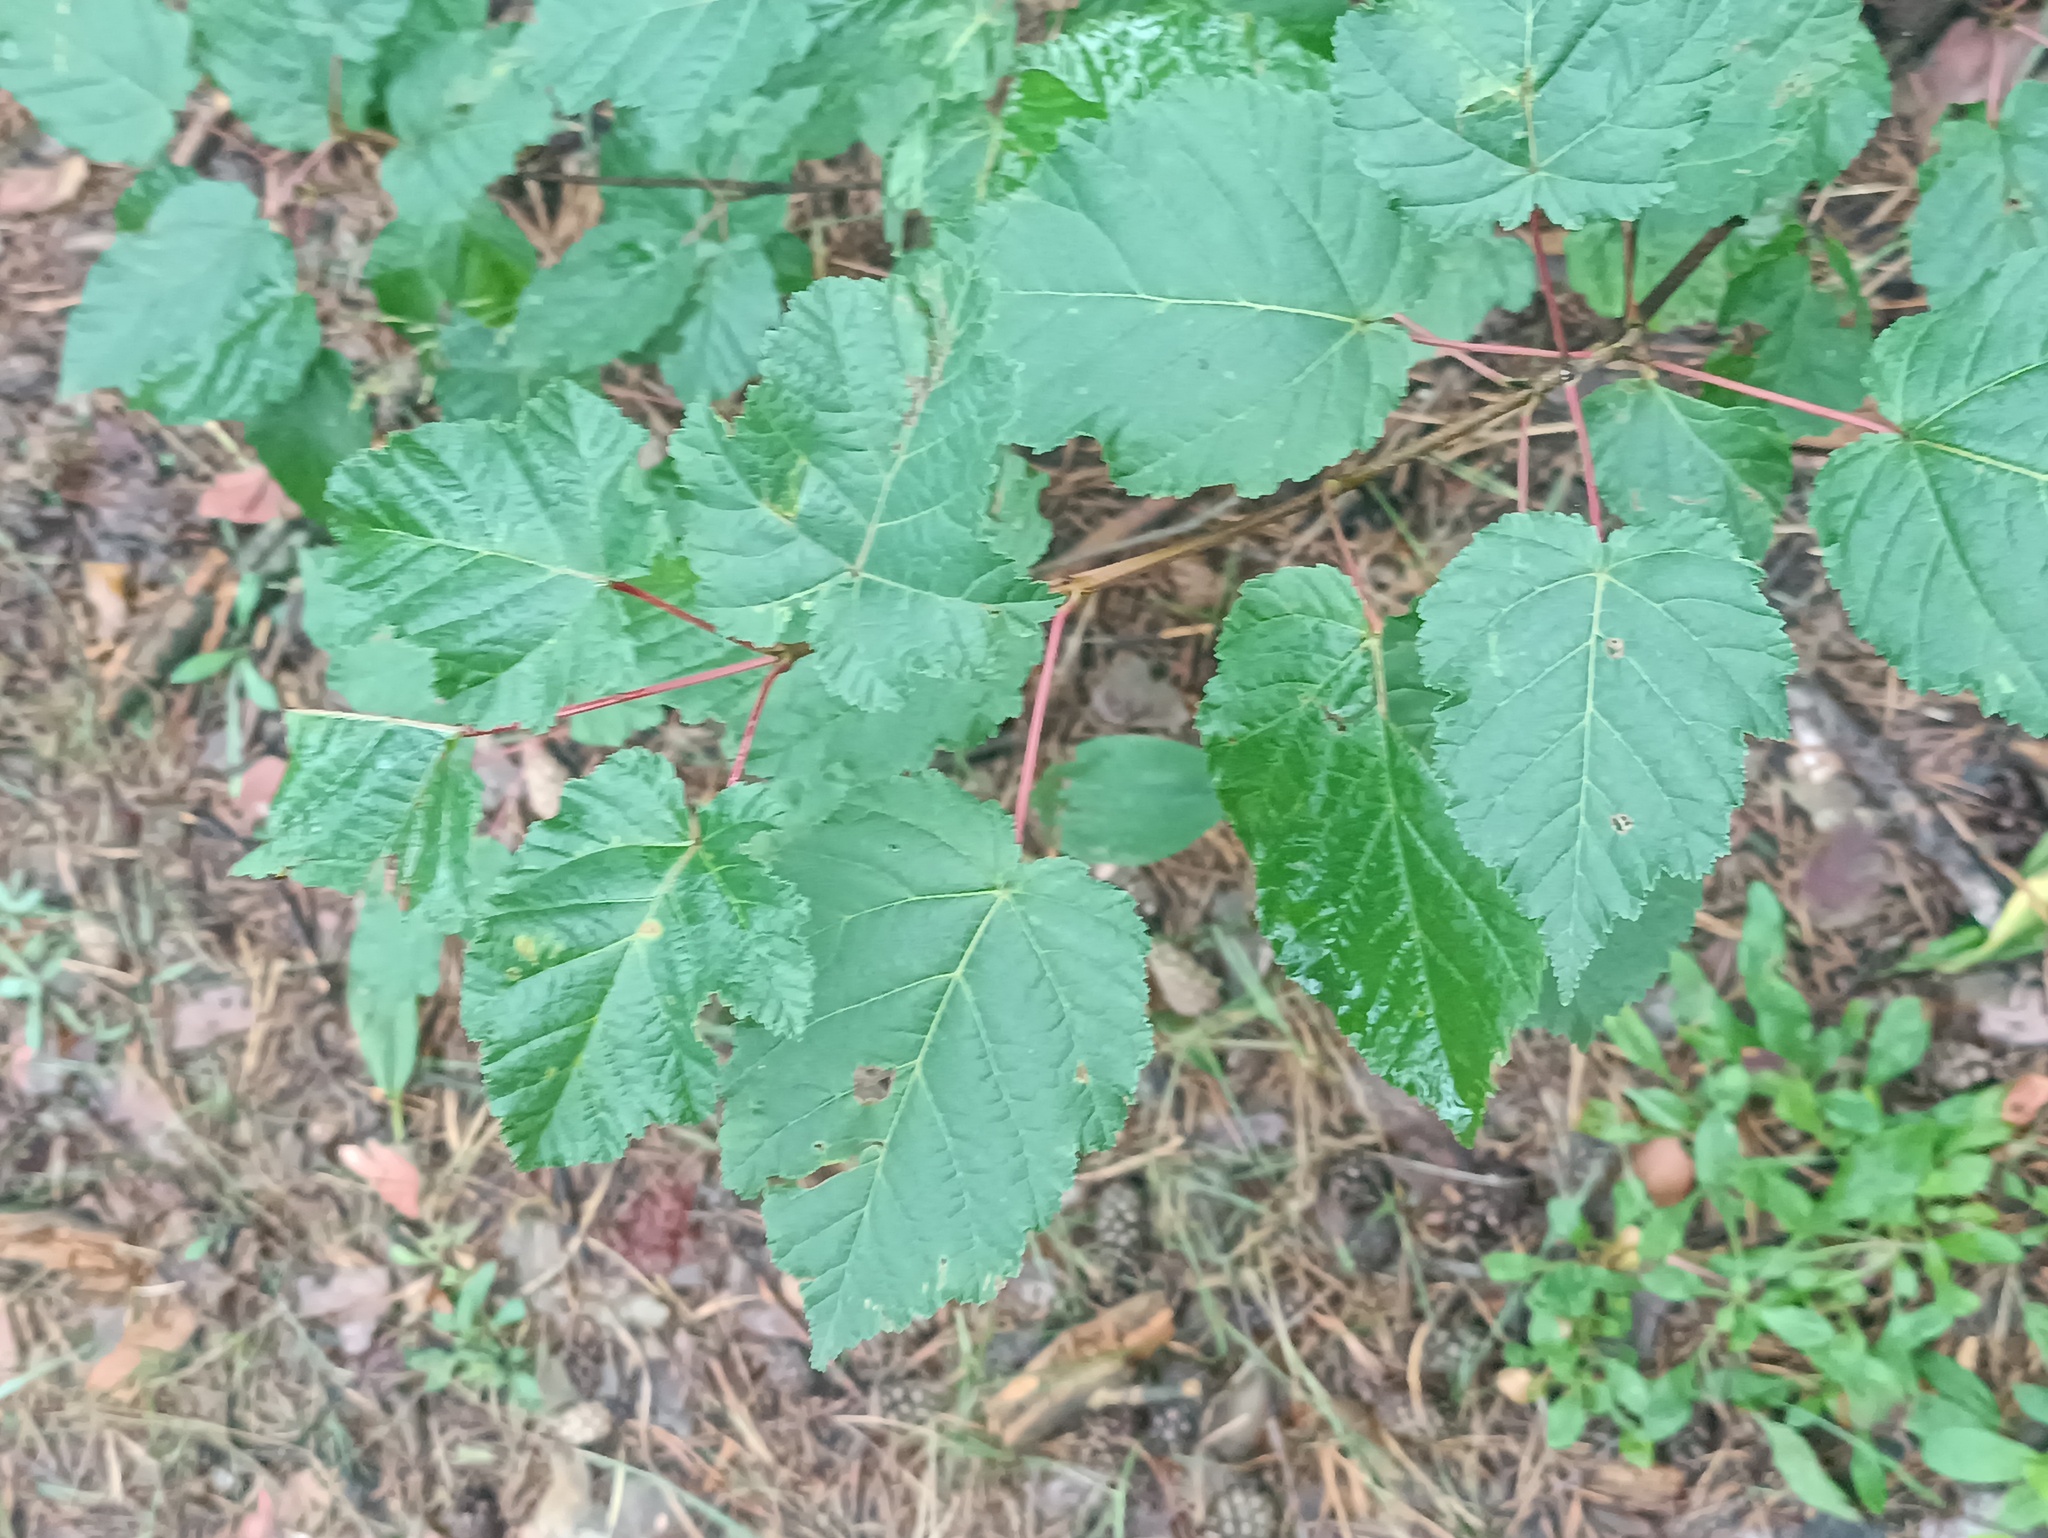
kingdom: Plantae
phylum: Tracheophyta
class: Magnoliopsida
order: Sapindales
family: Sapindaceae
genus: Acer
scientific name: Acer tataricum
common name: Tartar maple
